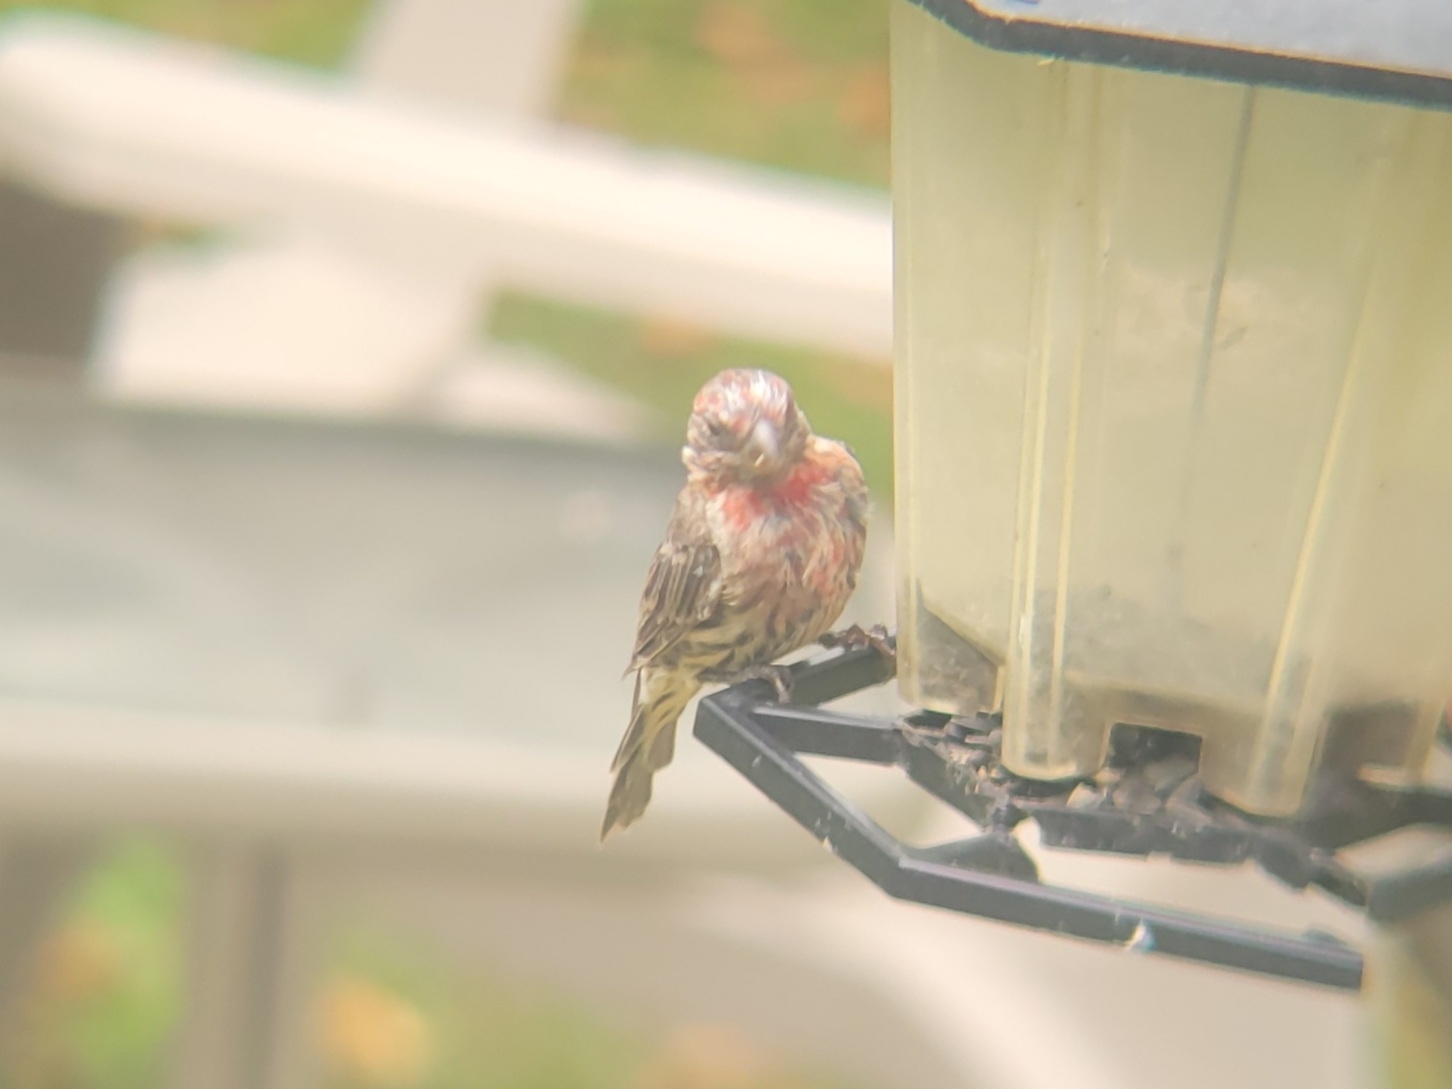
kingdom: Animalia
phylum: Chordata
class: Aves
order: Passeriformes
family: Fringillidae
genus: Haemorhous
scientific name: Haemorhous mexicanus
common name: House finch
